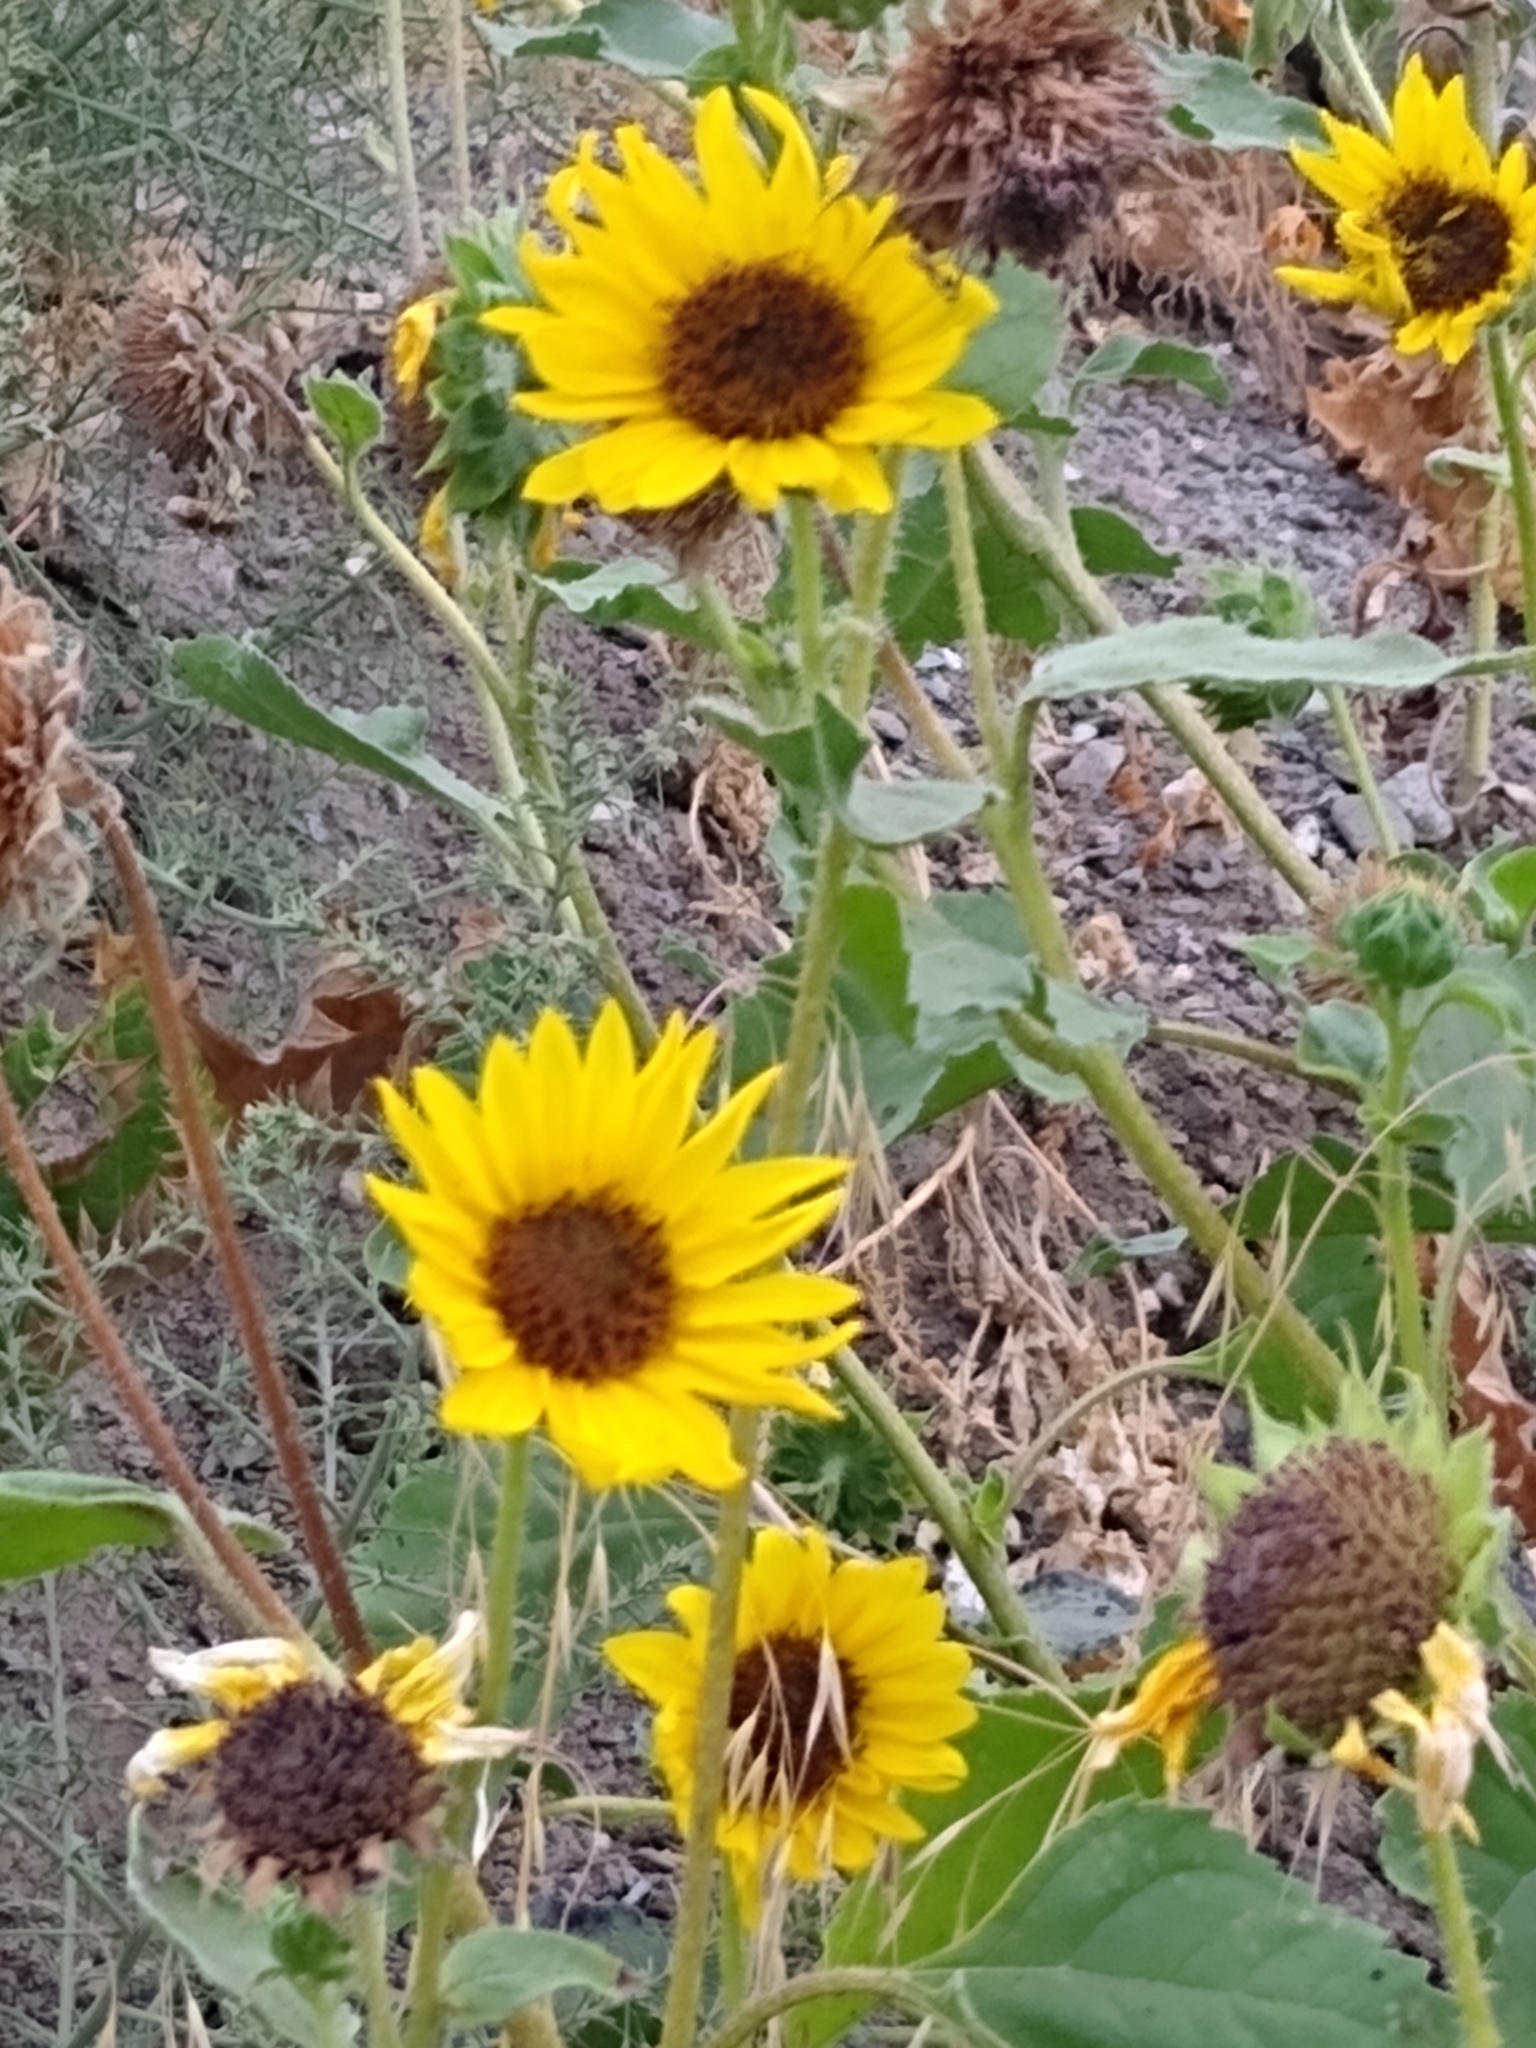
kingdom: Plantae
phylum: Tracheophyta
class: Magnoliopsida
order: Asterales
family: Asteraceae
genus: Helianthus
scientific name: Helianthus annuus
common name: Sunflower
